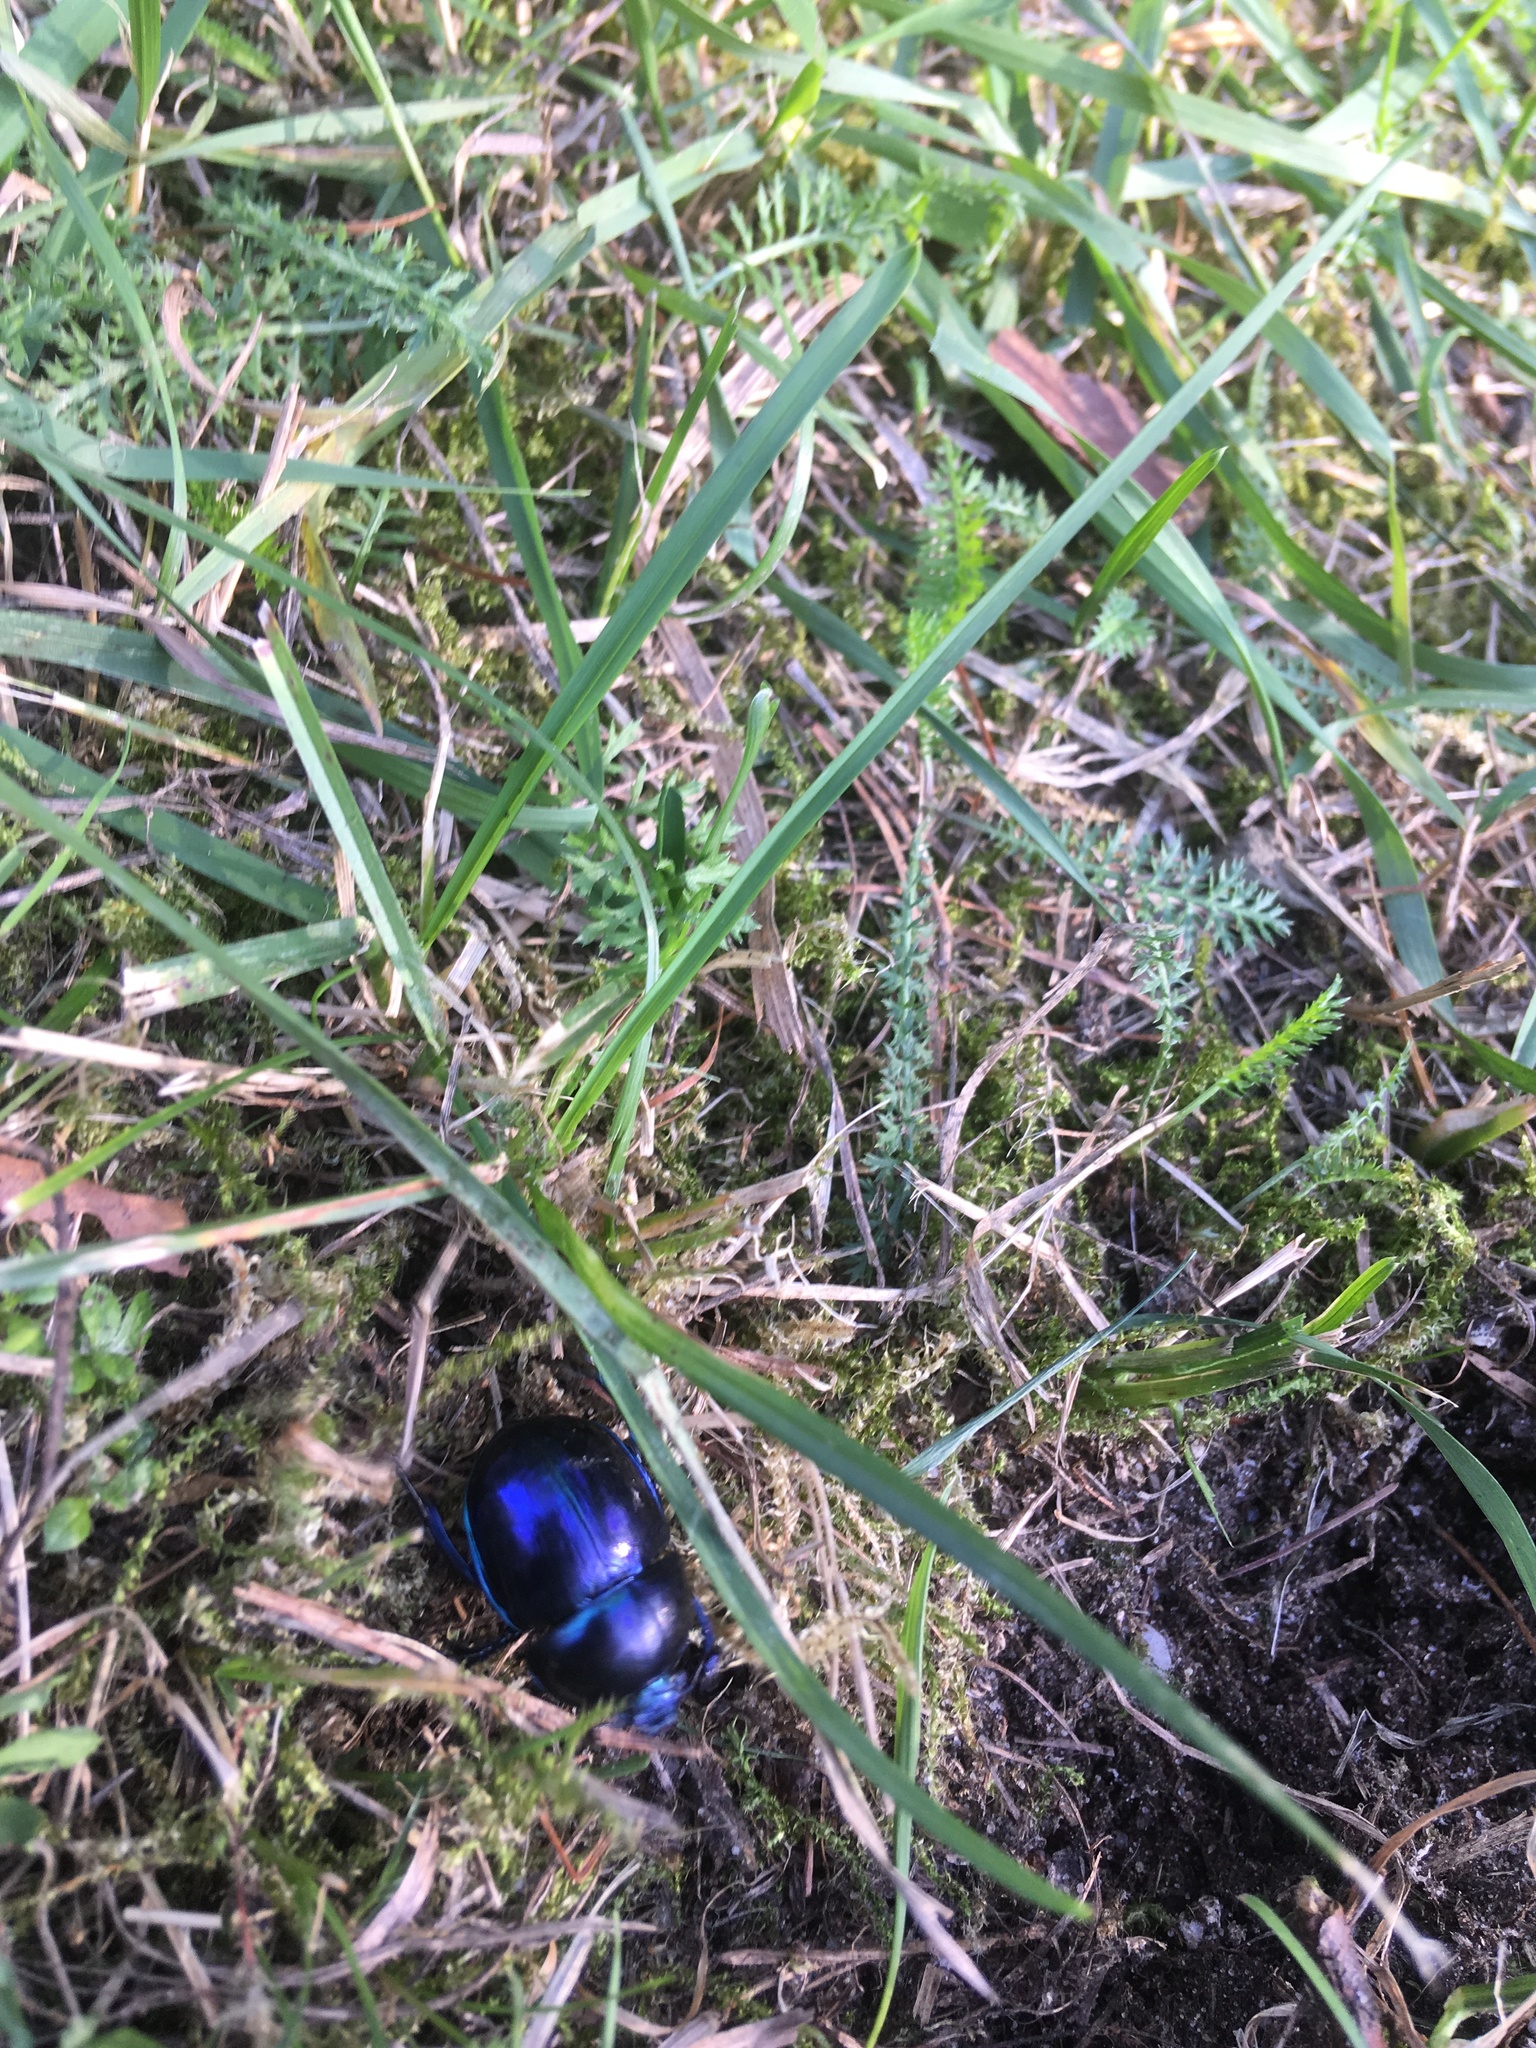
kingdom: Animalia
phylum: Arthropoda
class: Insecta
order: Coleoptera
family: Geotrupidae
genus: Trypocopris
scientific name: Trypocopris vernalis
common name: Spring dumbledor
